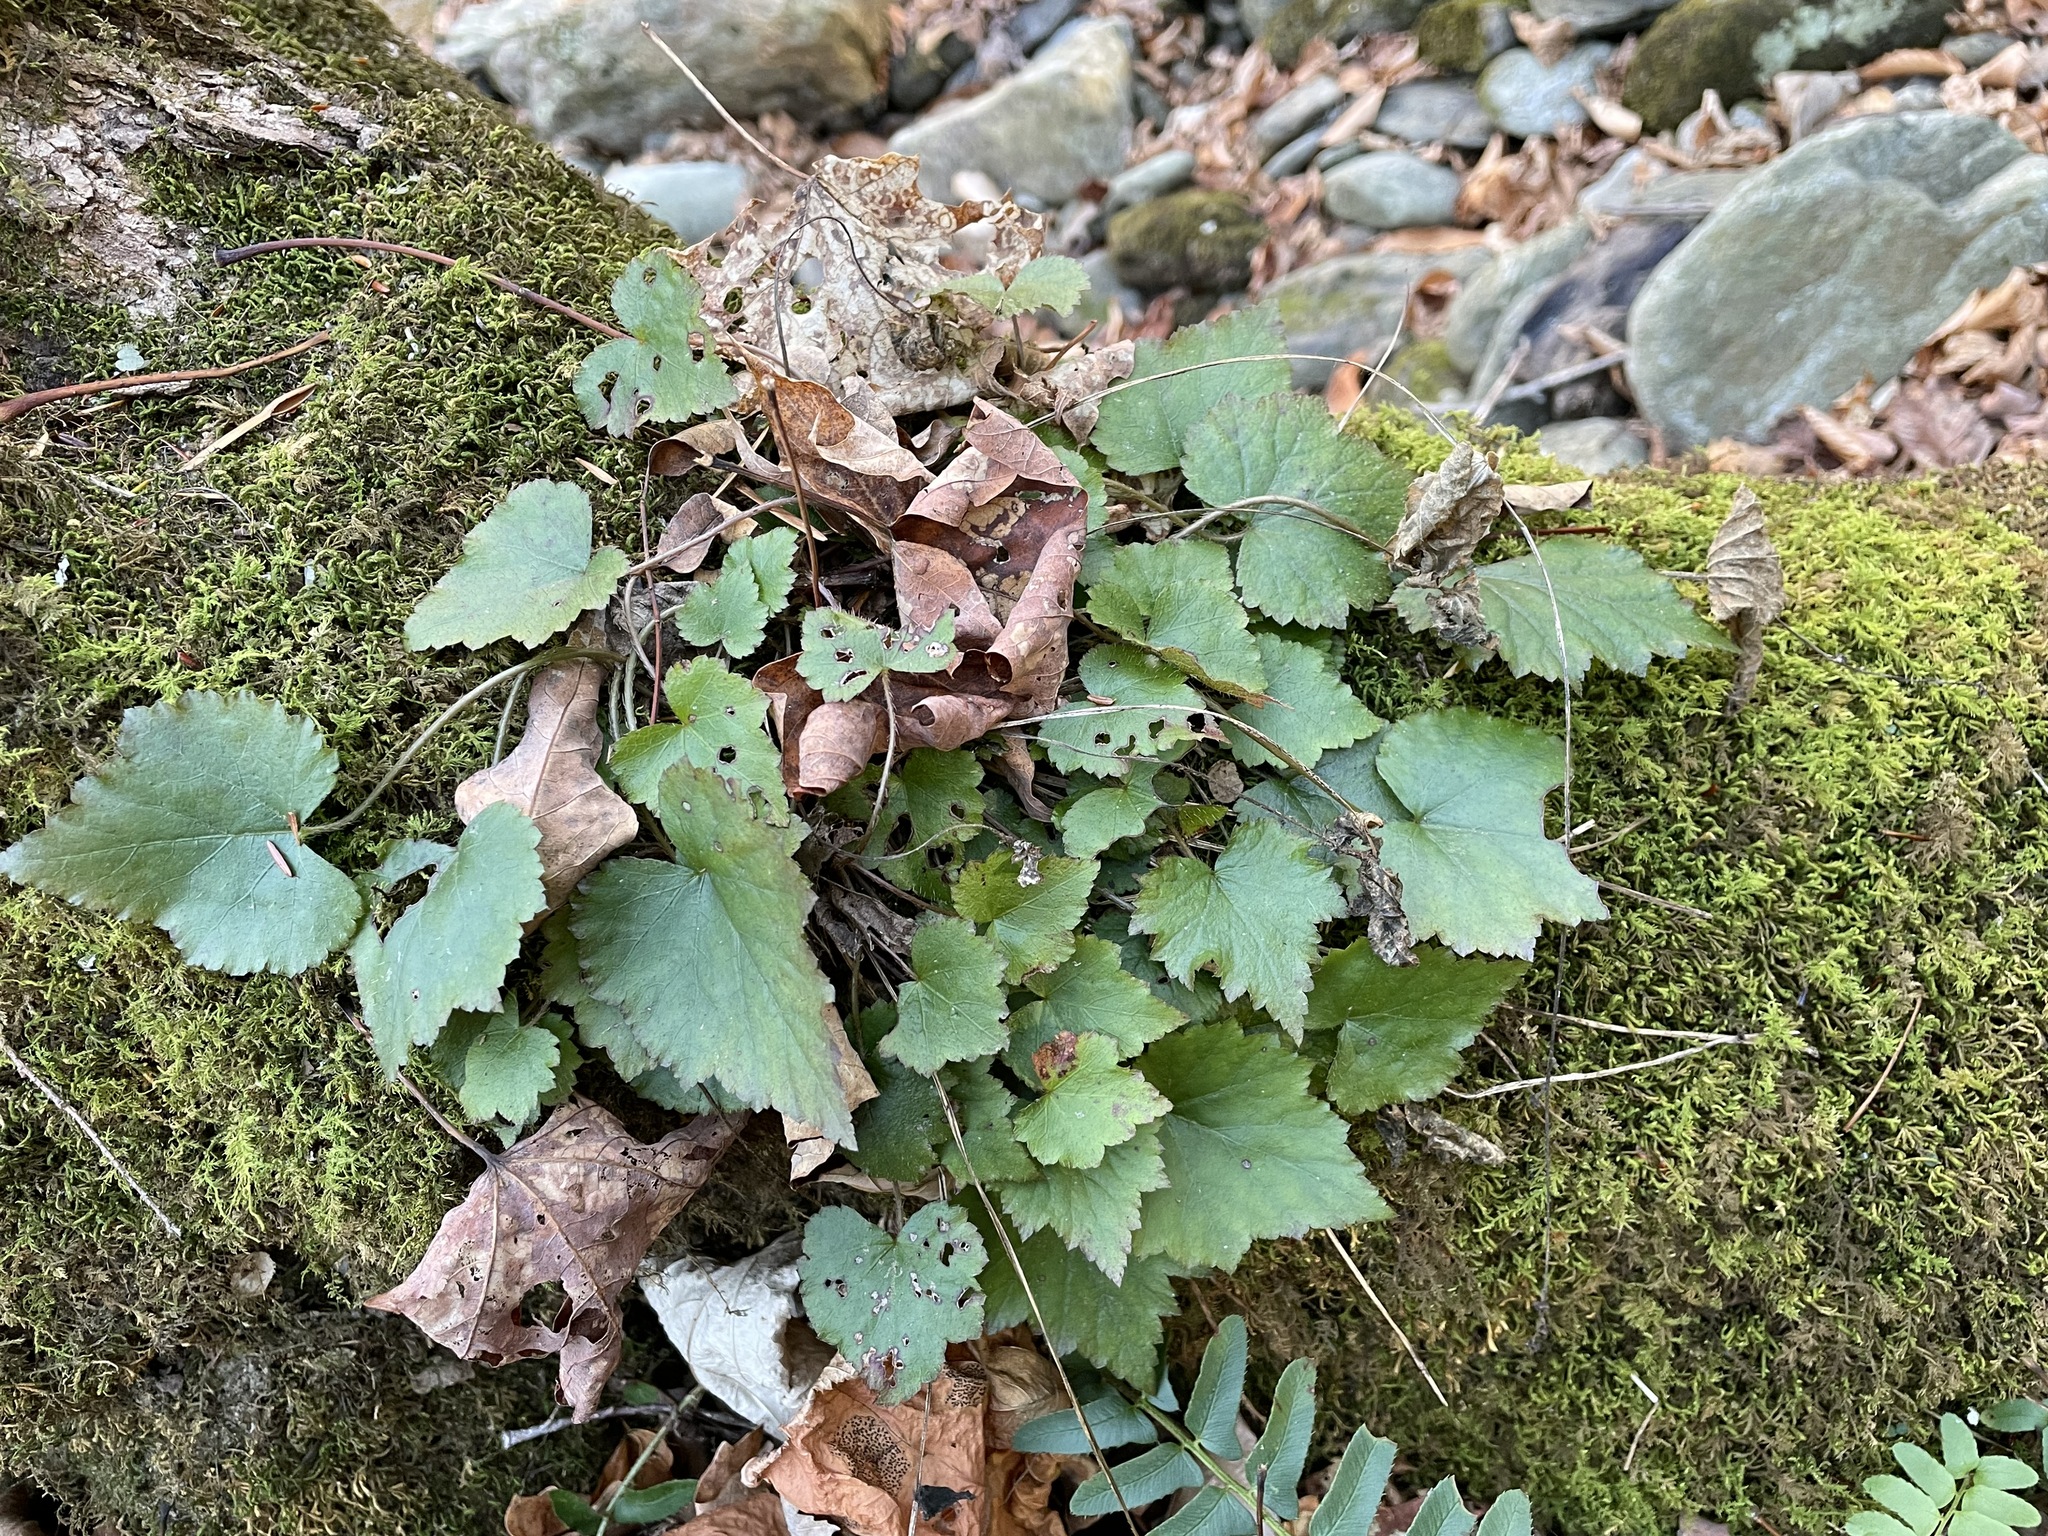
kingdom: Plantae
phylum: Tracheophyta
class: Magnoliopsida
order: Saxifragales
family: Saxifragaceae
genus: Mitella
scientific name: Mitella diphylla
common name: Coolwort
